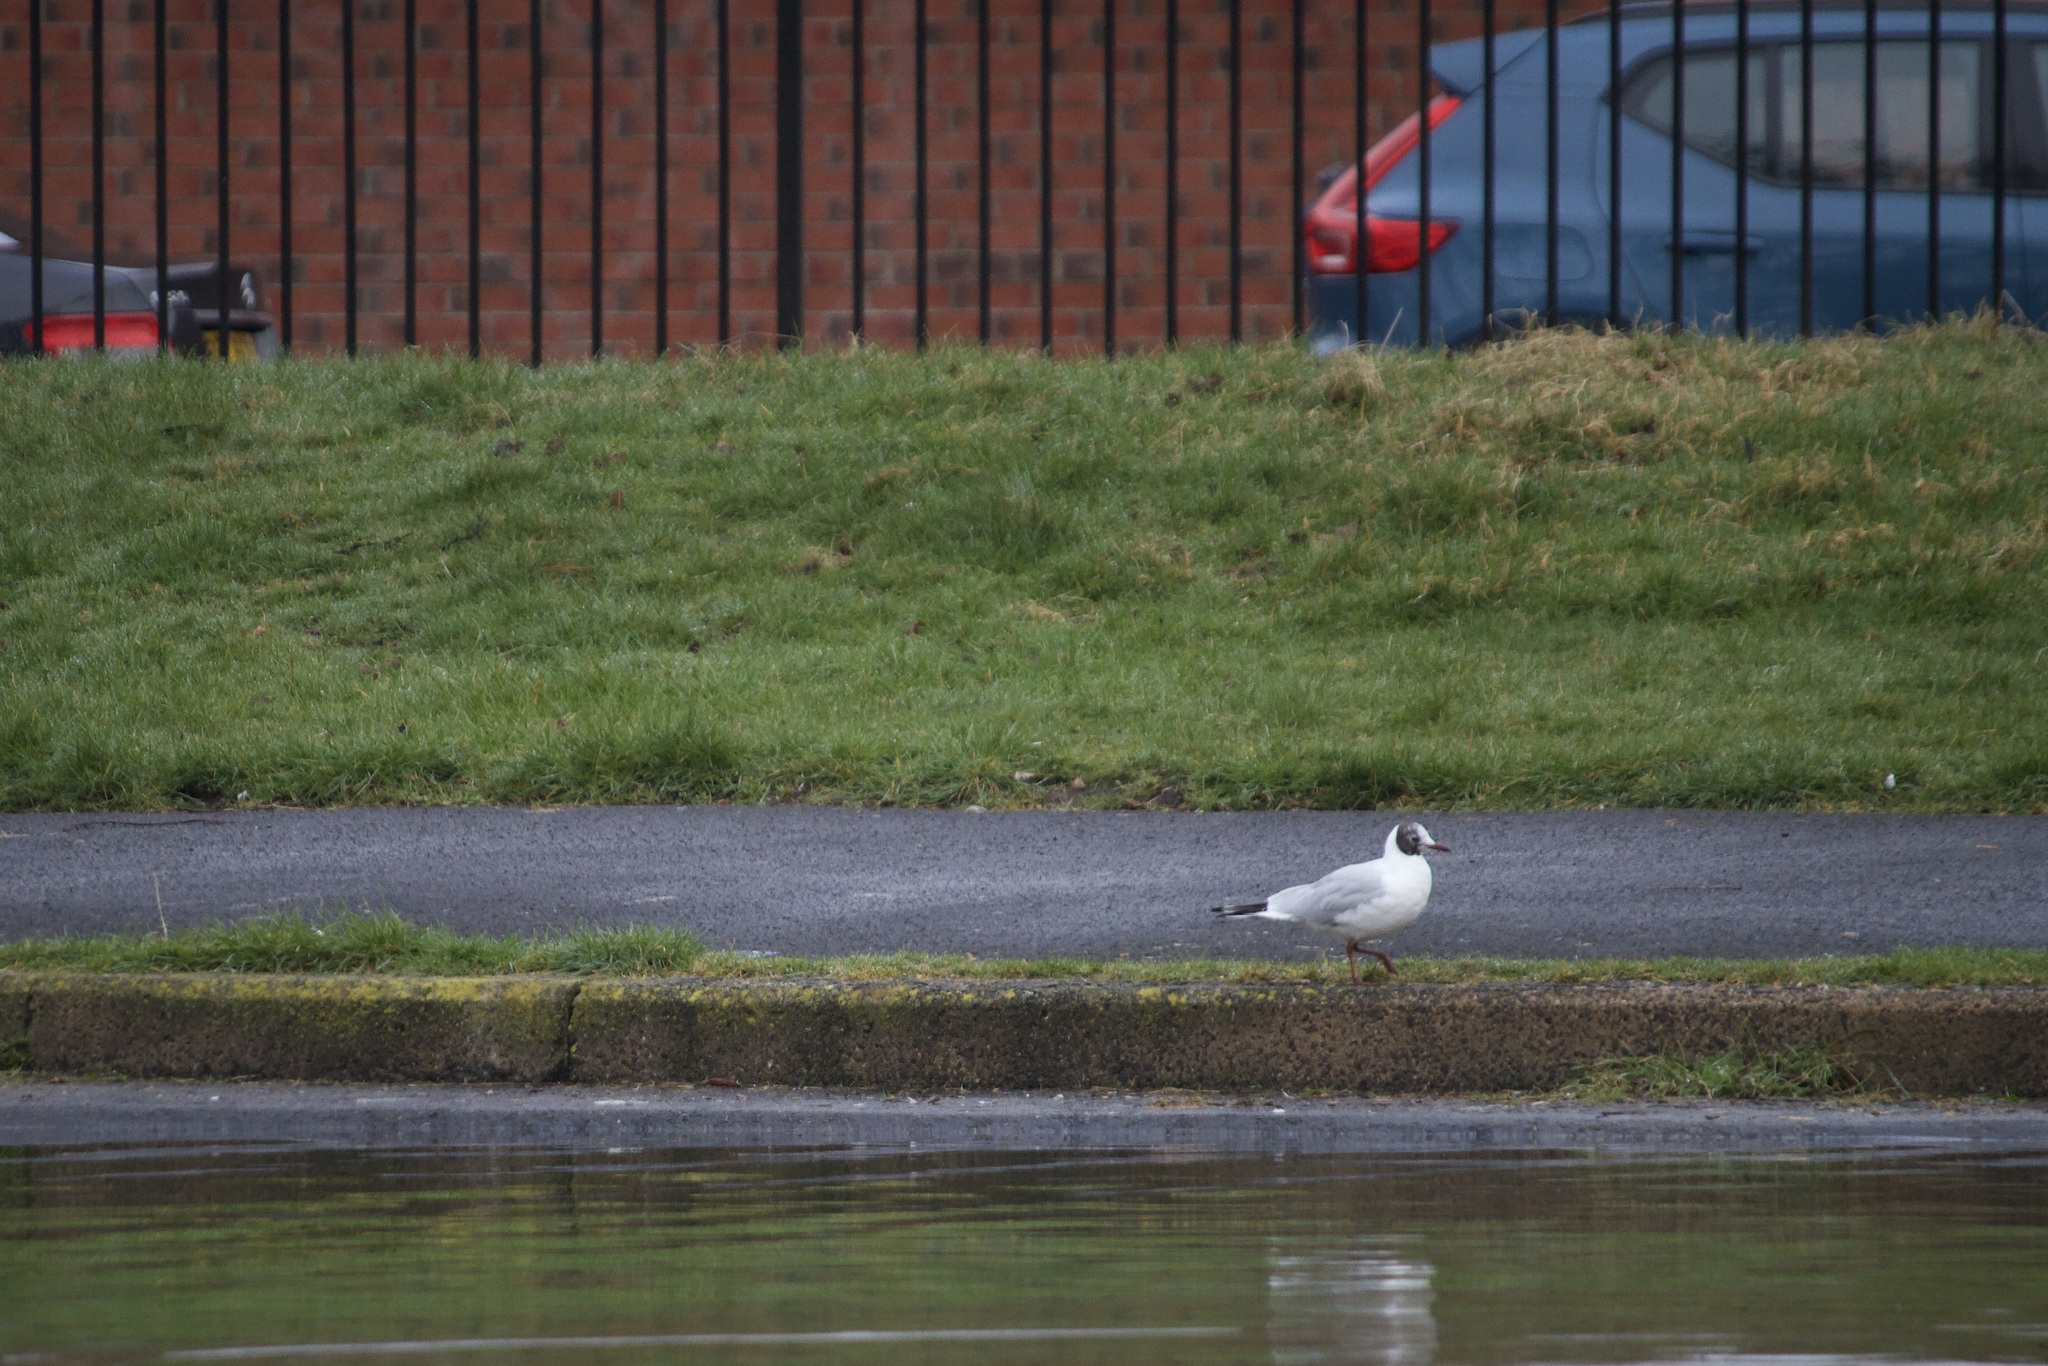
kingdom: Animalia
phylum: Chordata
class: Aves
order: Charadriiformes
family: Laridae
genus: Chroicocephalus
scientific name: Chroicocephalus ridibundus
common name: Black-headed gull
